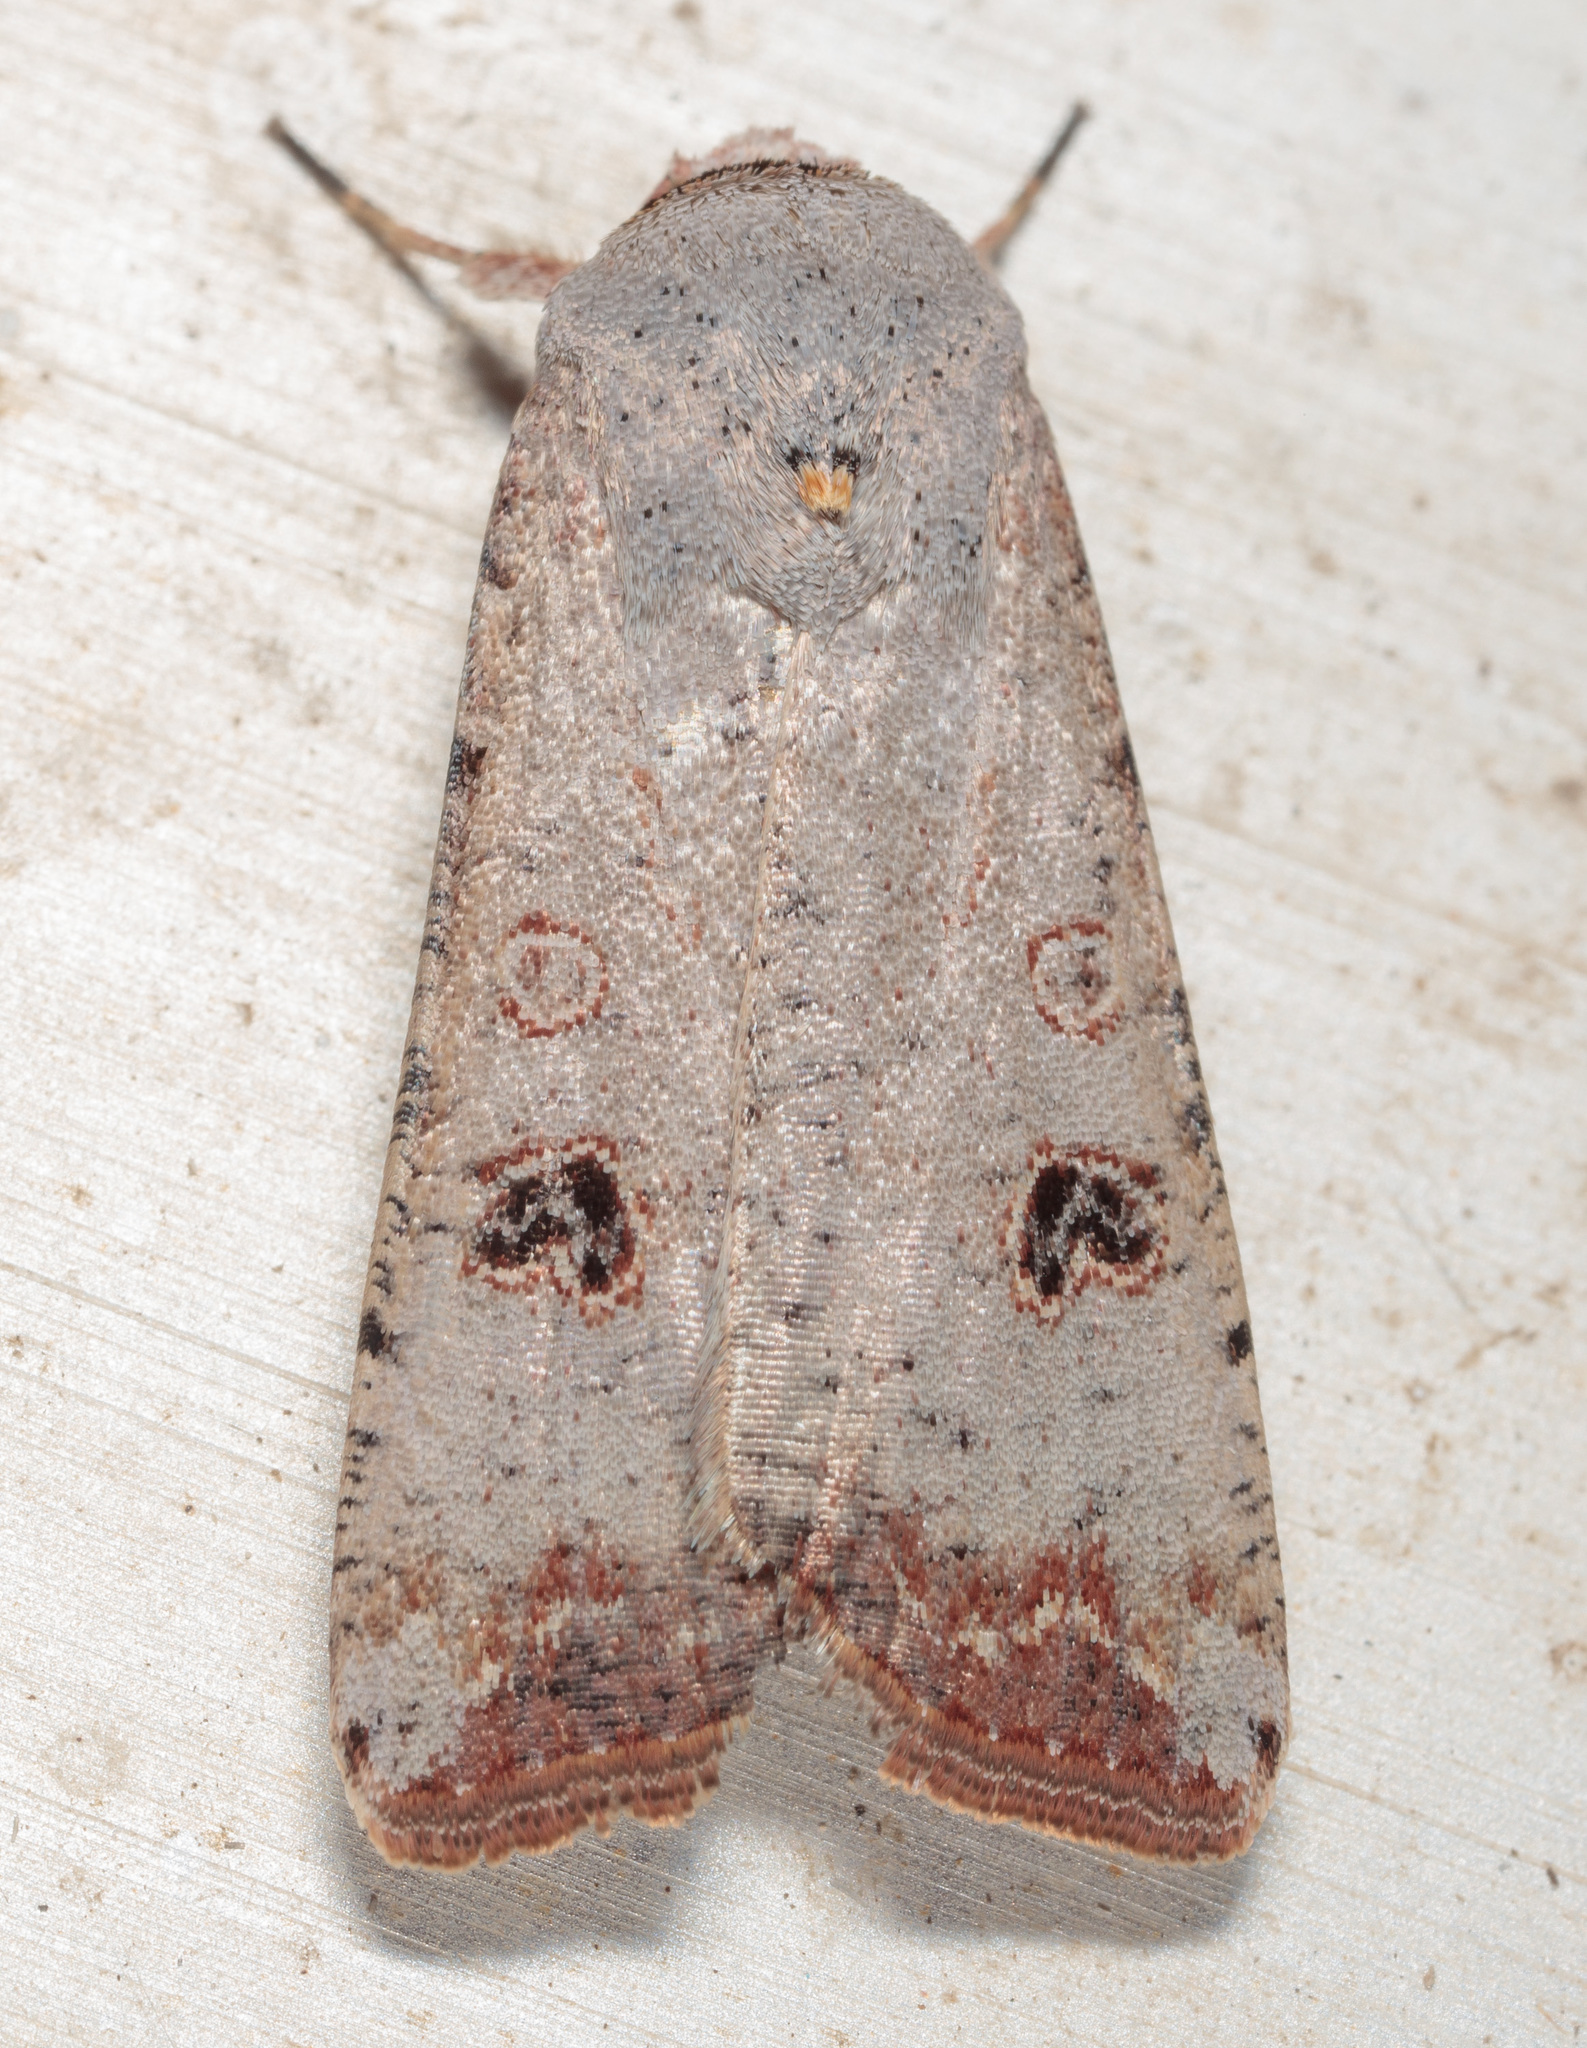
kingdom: Animalia
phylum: Arthropoda
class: Insecta
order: Lepidoptera
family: Noctuidae
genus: Anicla
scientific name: Anicla infecta
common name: Green cutworm
